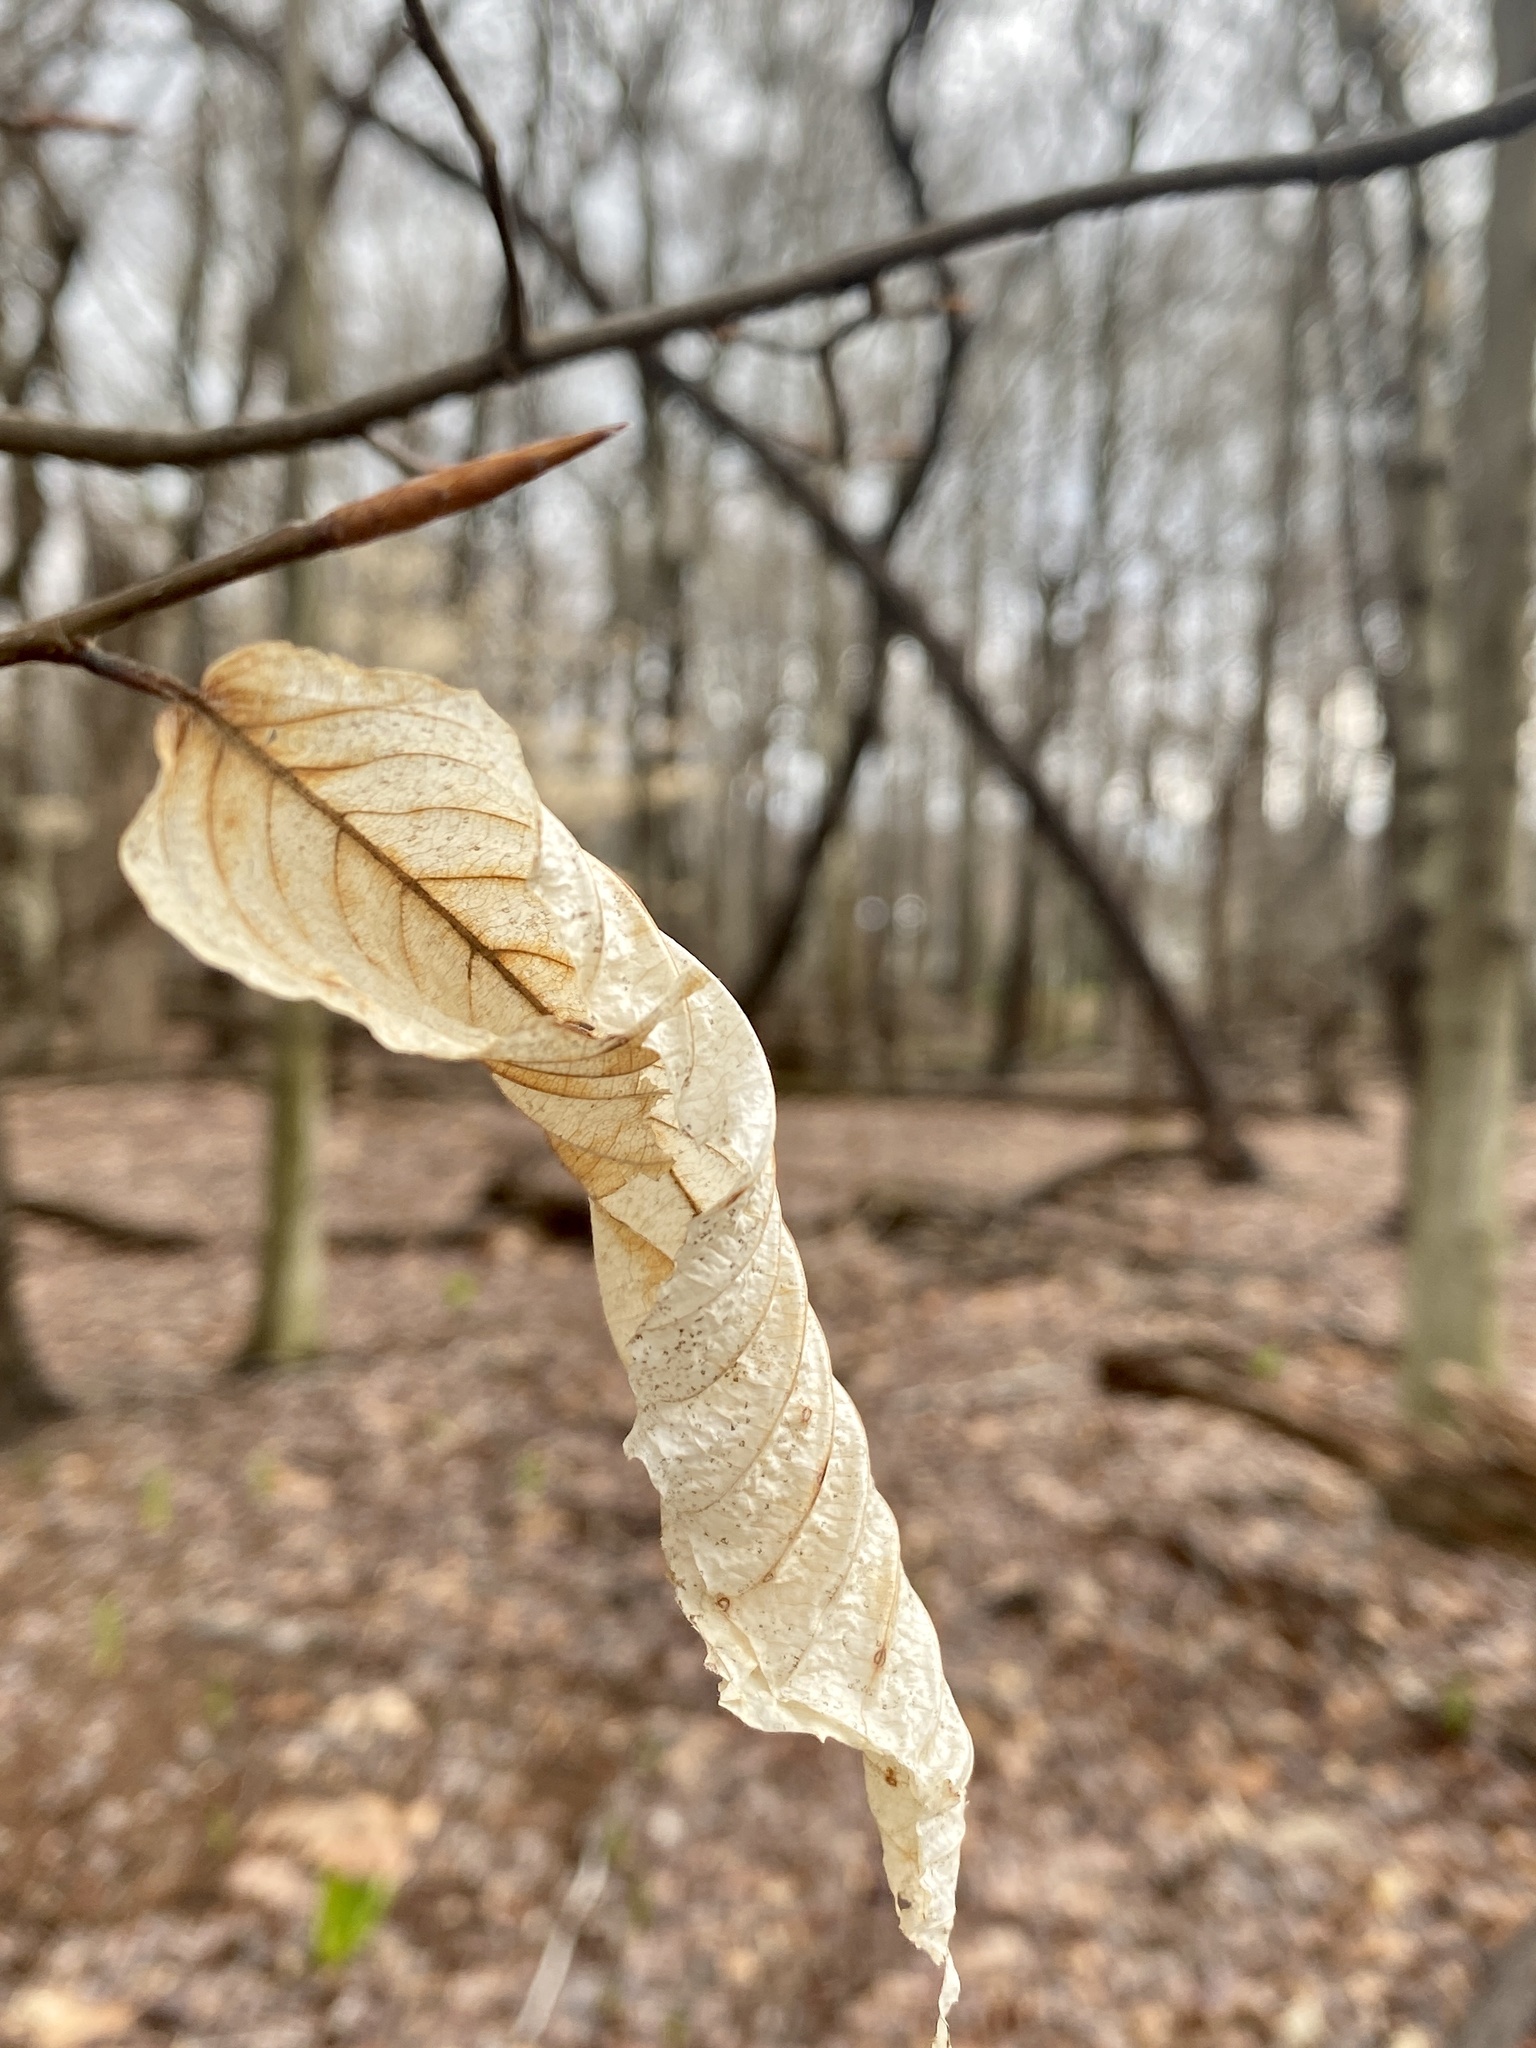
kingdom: Plantae
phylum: Tracheophyta
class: Magnoliopsida
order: Fagales
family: Fagaceae
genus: Fagus
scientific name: Fagus grandifolia
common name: American beech
